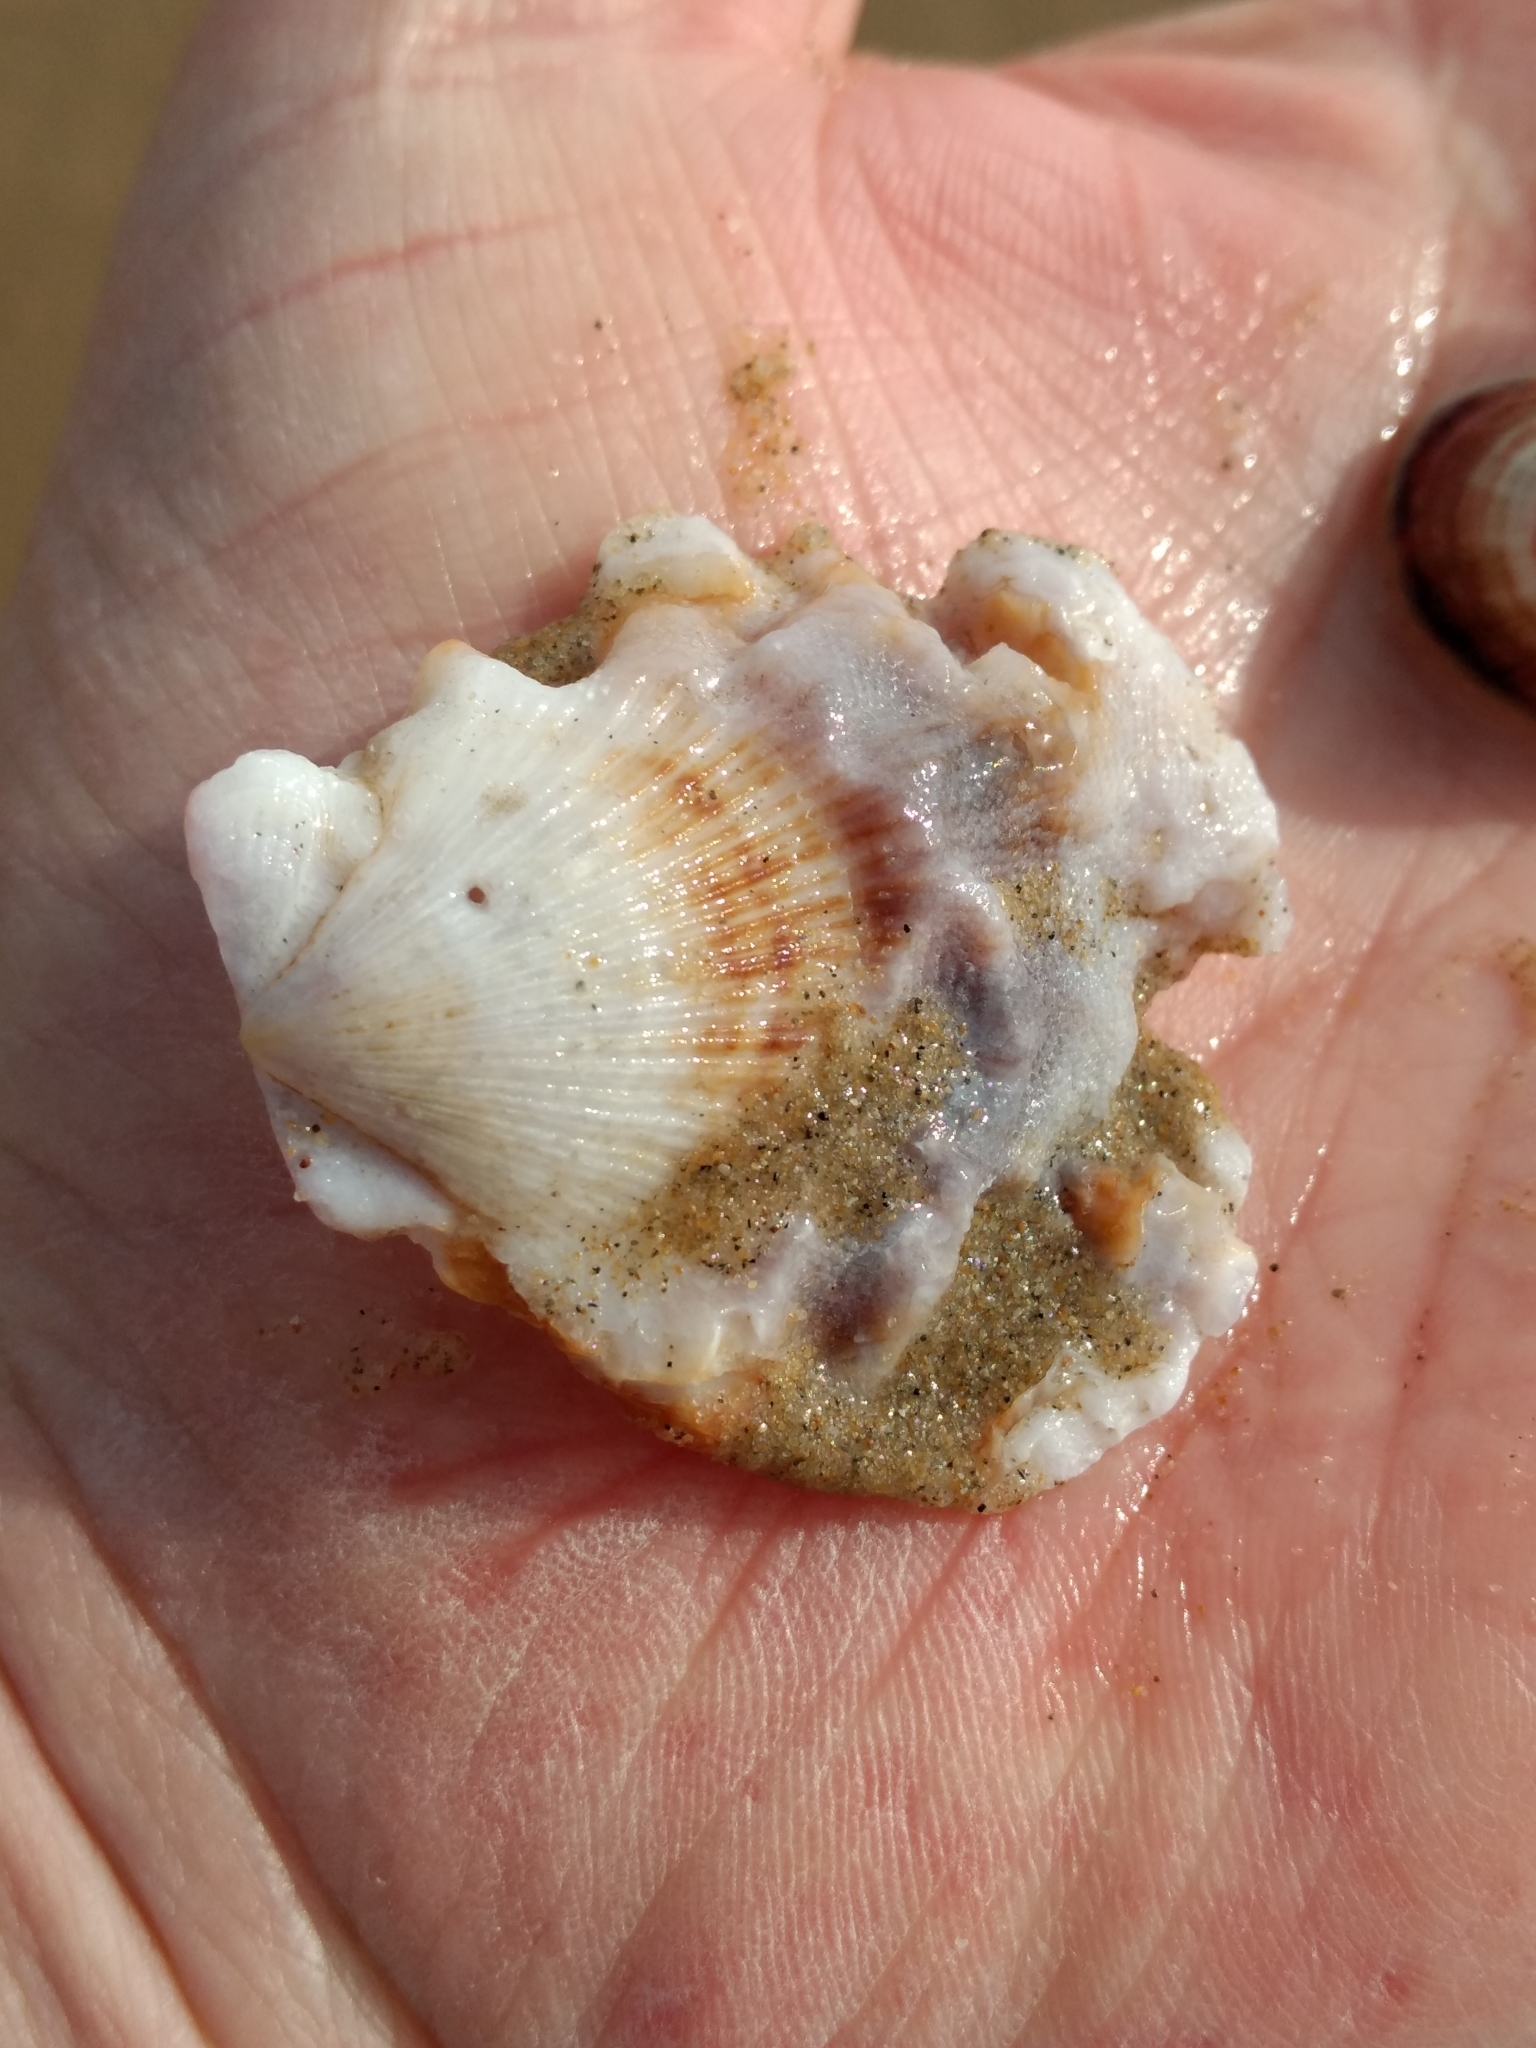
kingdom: Animalia
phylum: Mollusca
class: Bivalvia
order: Pectinida
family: Pectinidae
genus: Crassadoma
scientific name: Crassadoma gigantea
